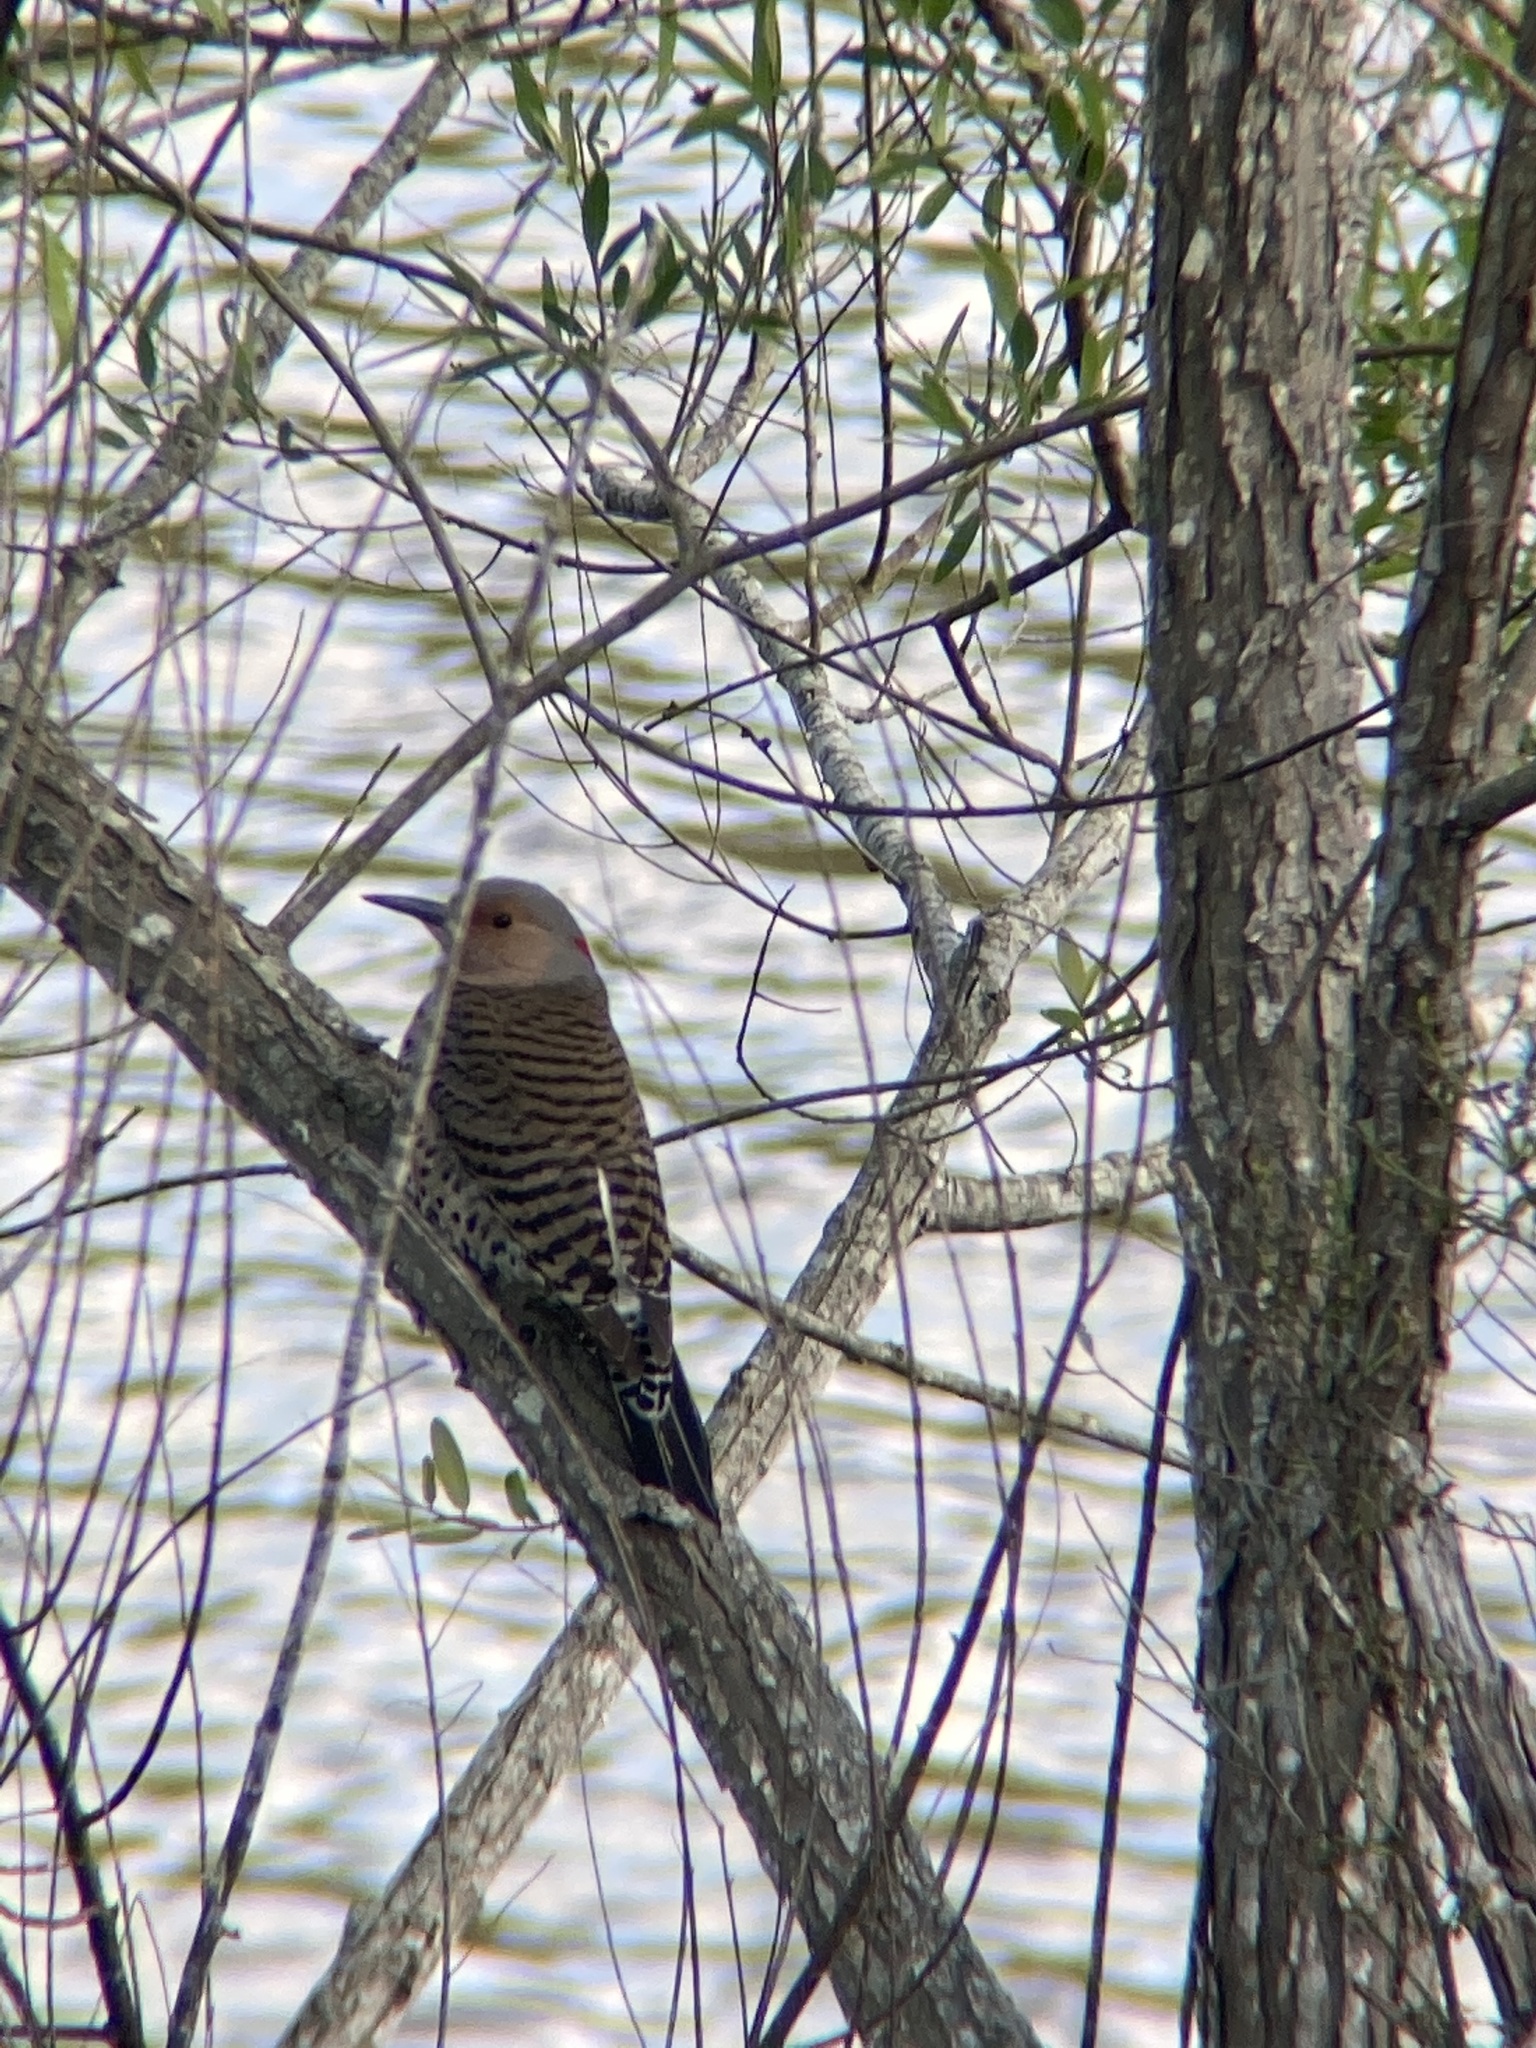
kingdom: Animalia
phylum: Chordata
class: Aves
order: Piciformes
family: Picidae
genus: Colaptes
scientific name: Colaptes auratus
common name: Northern flicker
